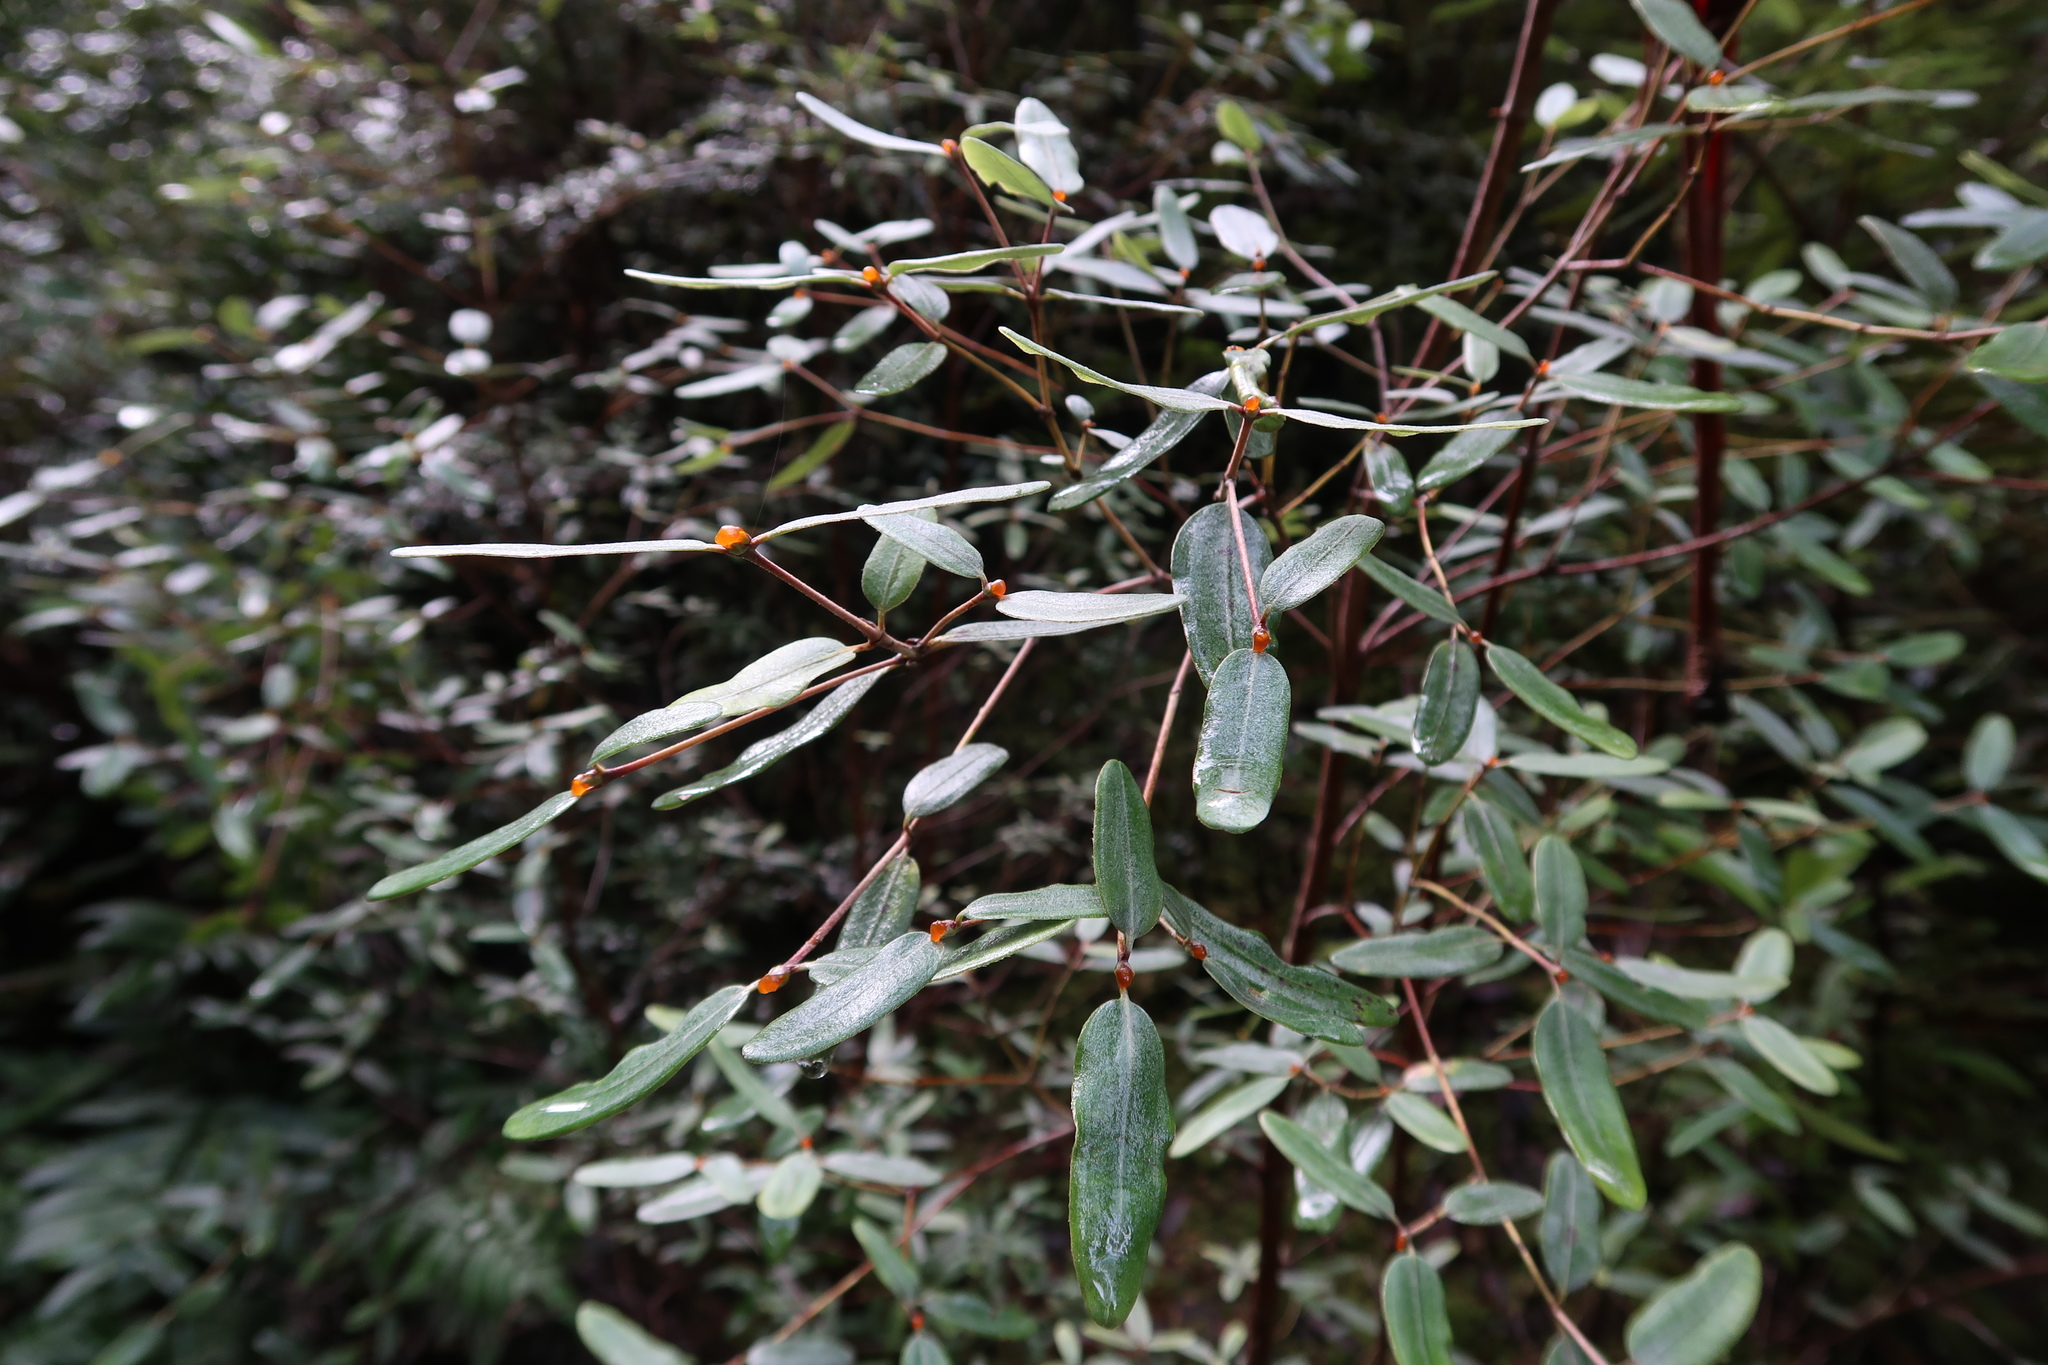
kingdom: Plantae
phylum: Tracheophyta
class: Magnoliopsida
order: Oxalidales
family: Cunoniaceae
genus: Eucryphia
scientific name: Eucryphia lucida
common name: Leatherwood
